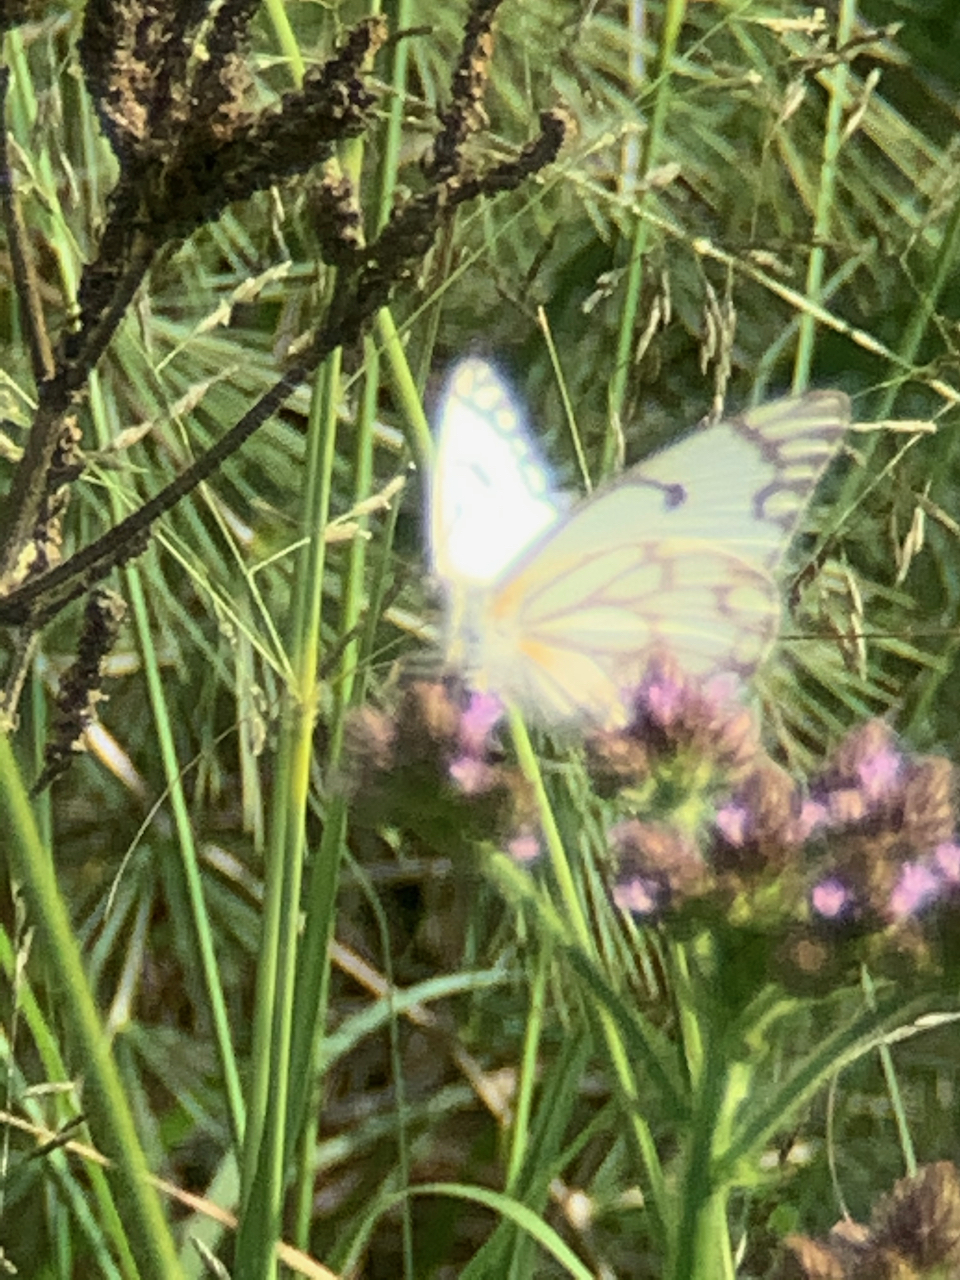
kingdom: Animalia
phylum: Arthropoda
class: Insecta
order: Lepidoptera
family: Pieridae
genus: Belenois
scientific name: Belenois aurota
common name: Brown-veined white
